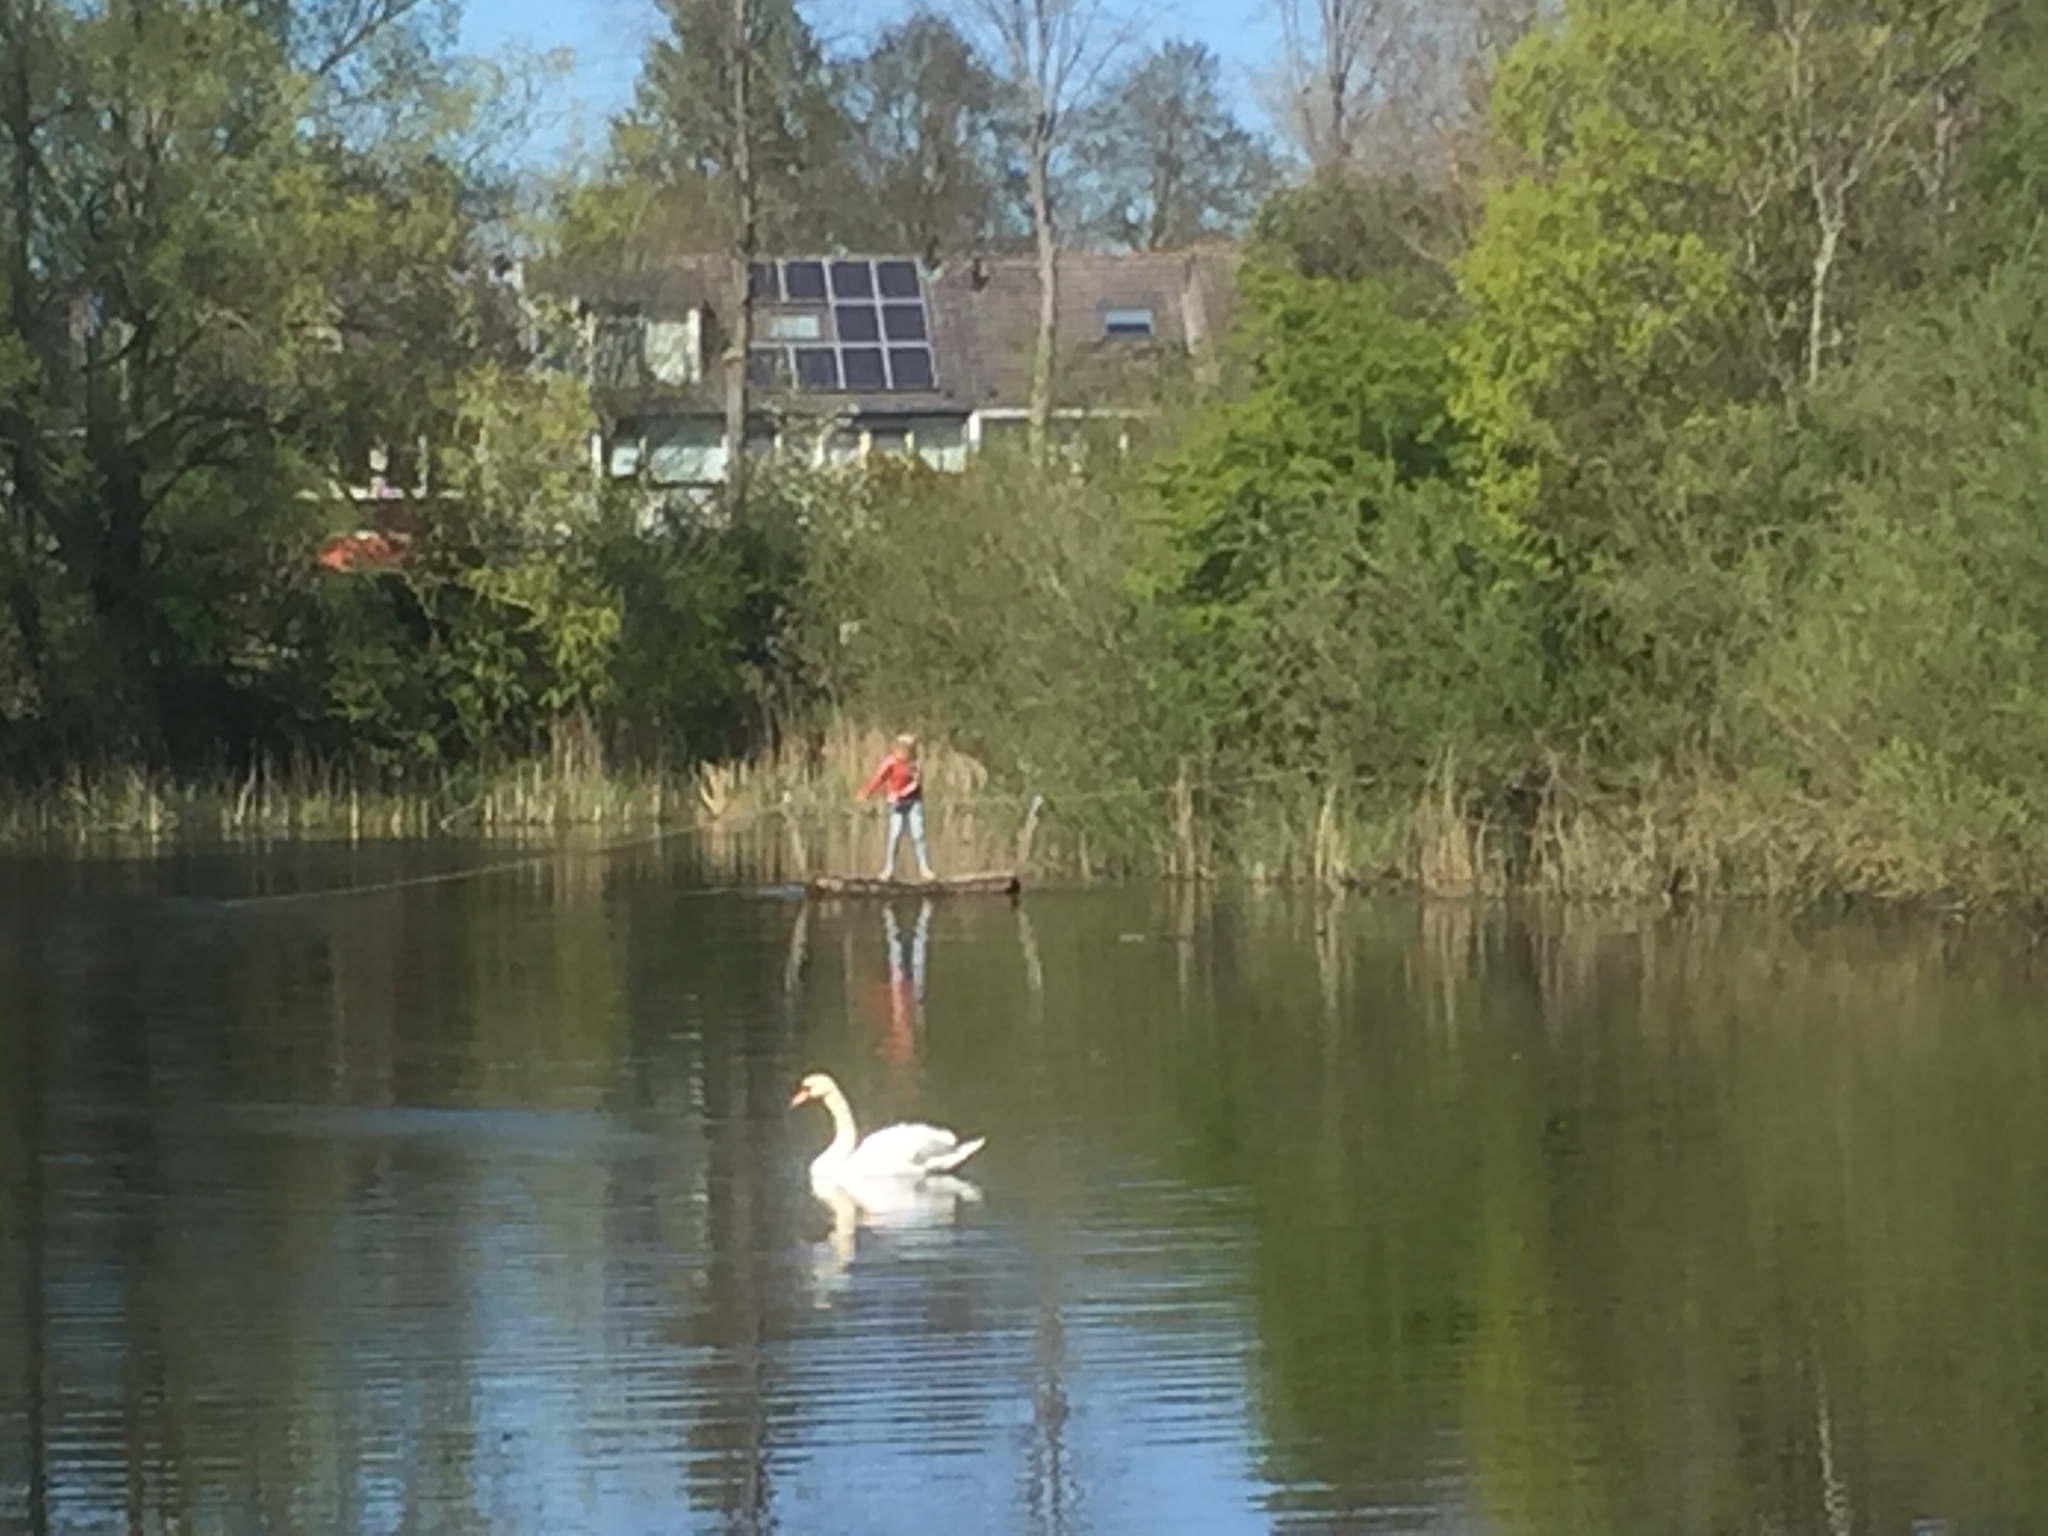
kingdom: Animalia
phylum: Chordata
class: Aves
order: Anseriformes
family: Anatidae
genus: Cygnus
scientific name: Cygnus olor
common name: Mute swan
